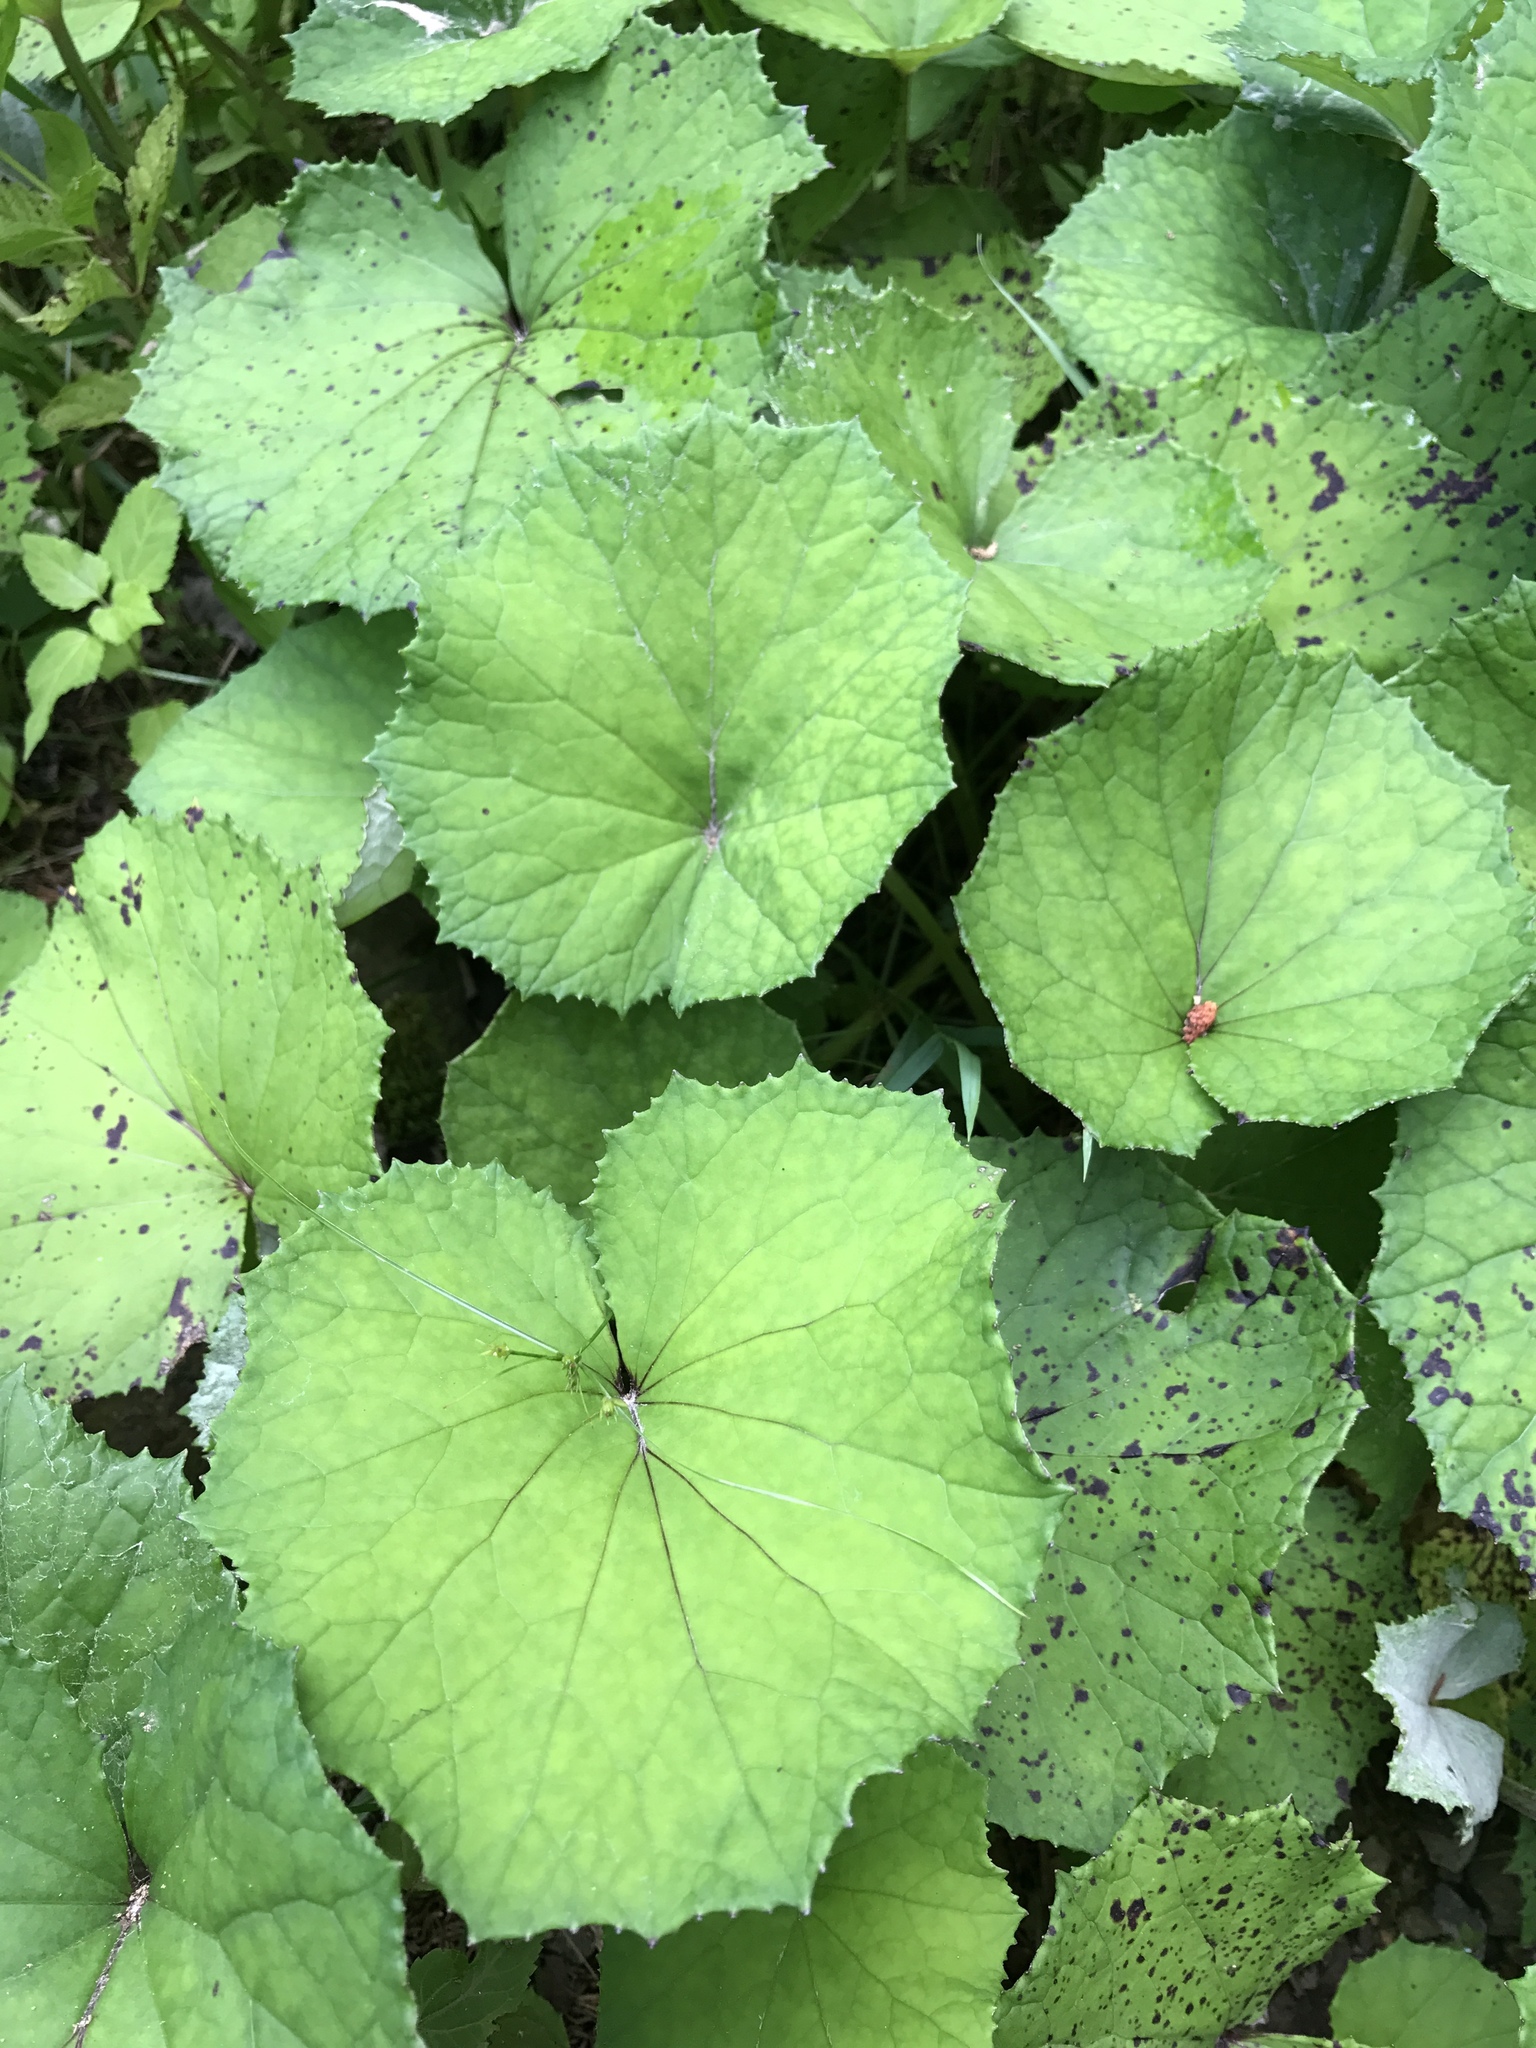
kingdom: Plantae
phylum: Tracheophyta
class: Magnoliopsida
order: Asterales
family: Asteraceae
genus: Tussilago
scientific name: Tussilago farfara
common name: Coltsfoot
